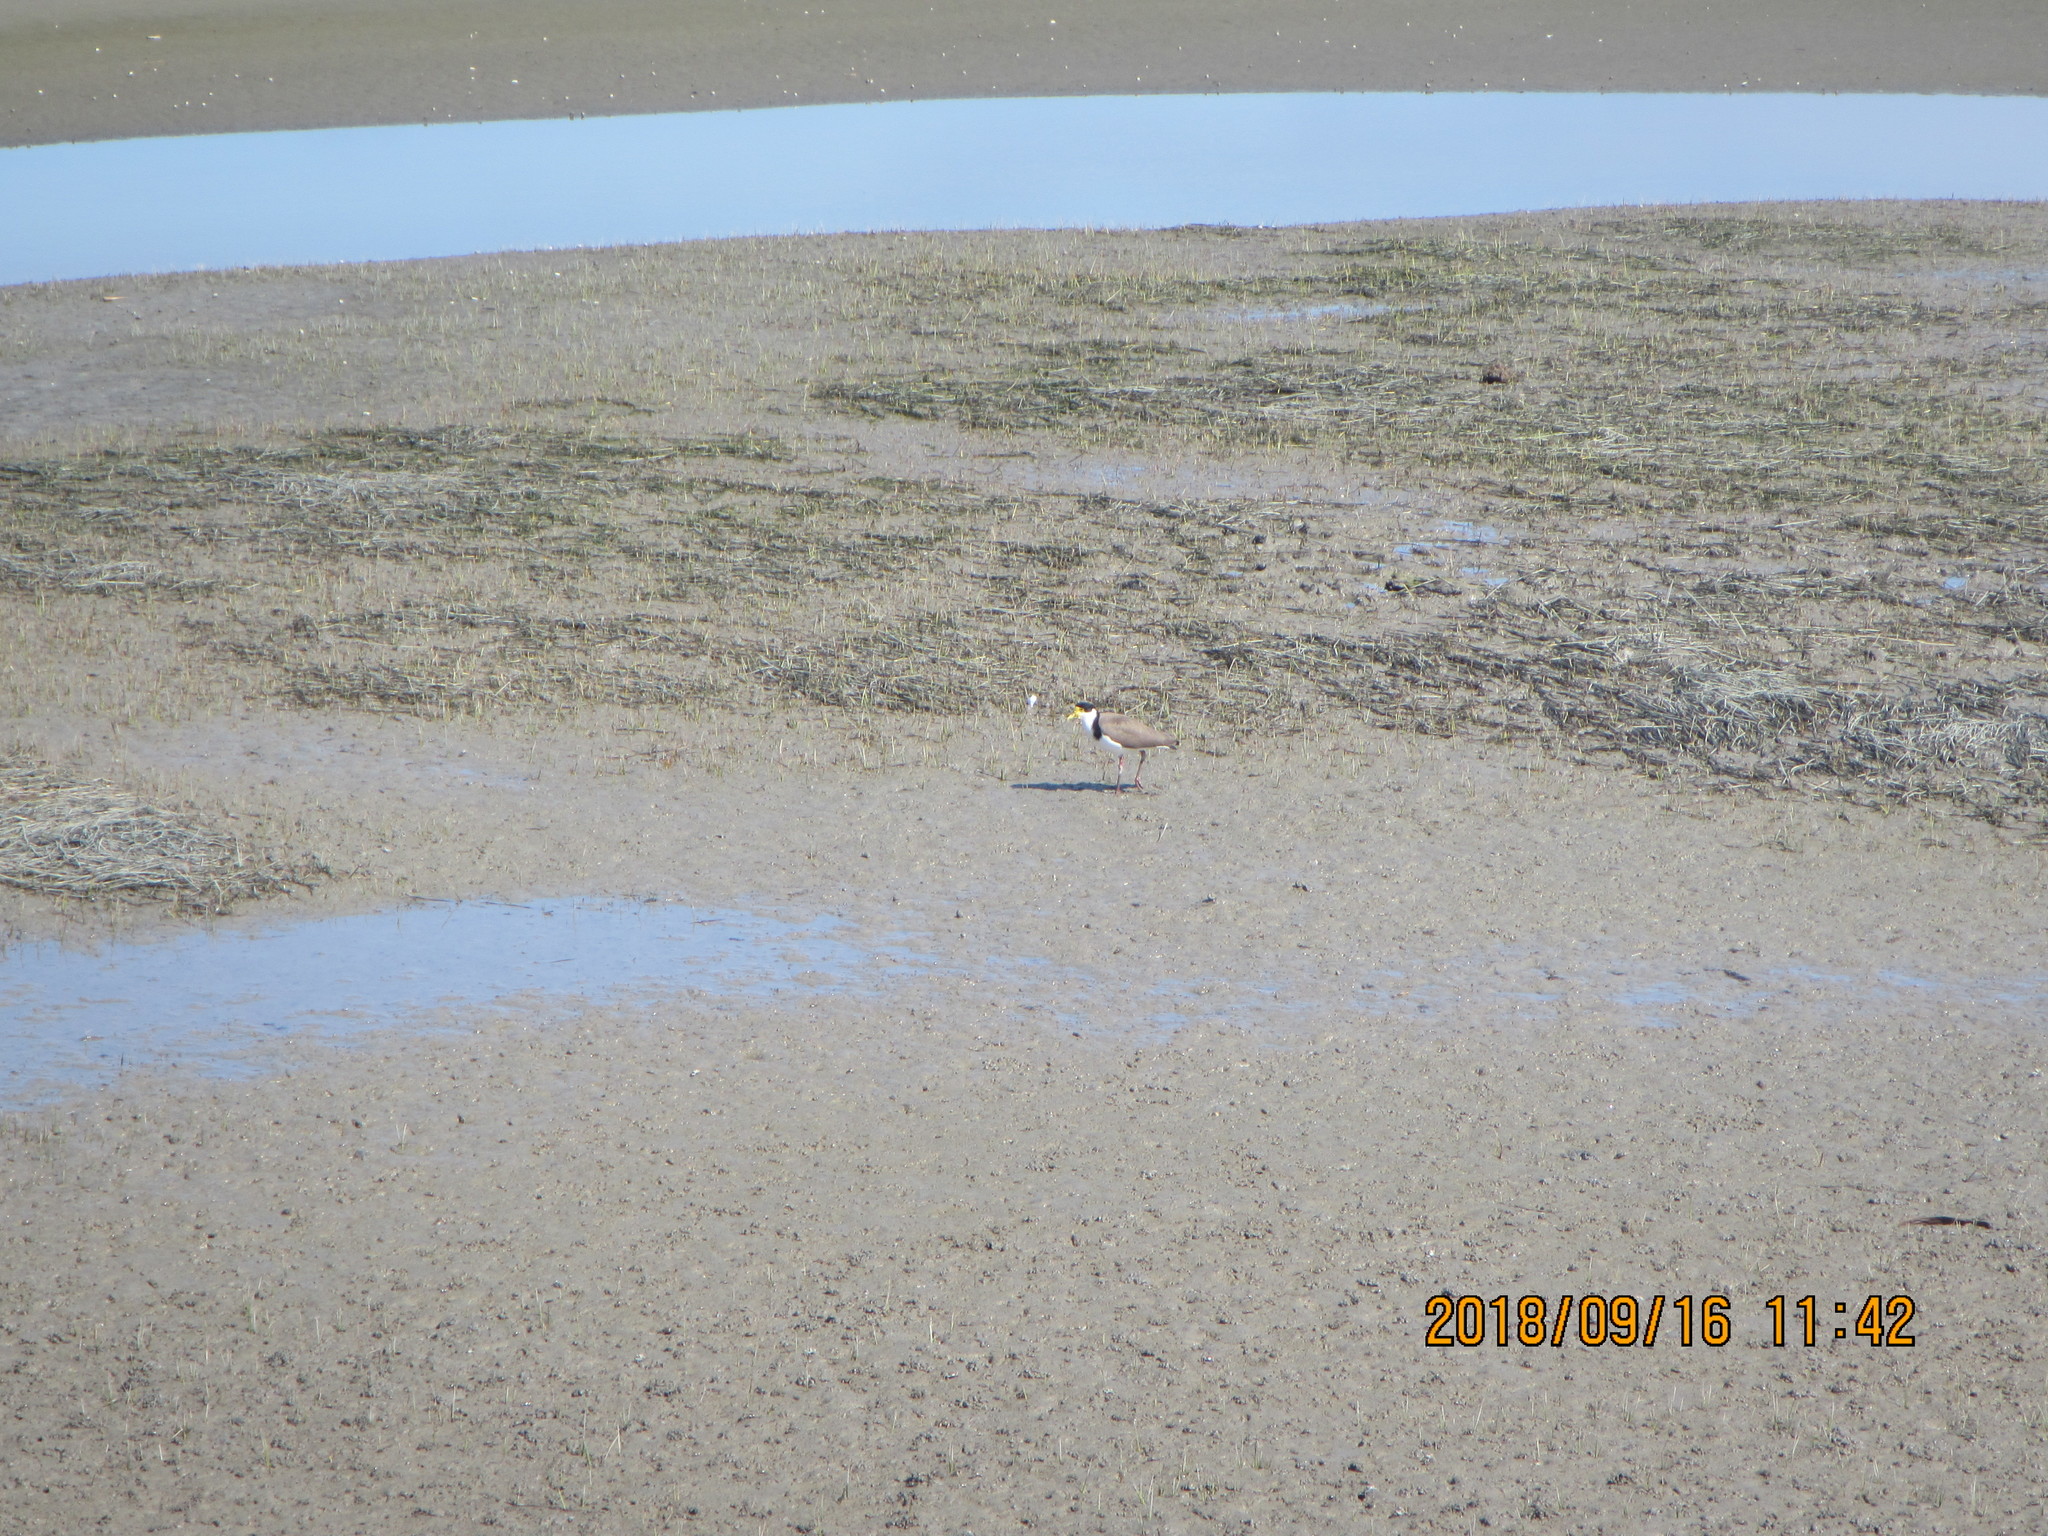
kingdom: Animalia
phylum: Chordata
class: Aves
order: Charadriiformes
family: Charadriidae
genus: Vanellus
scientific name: Vanellus miles
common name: Masked lapwing
